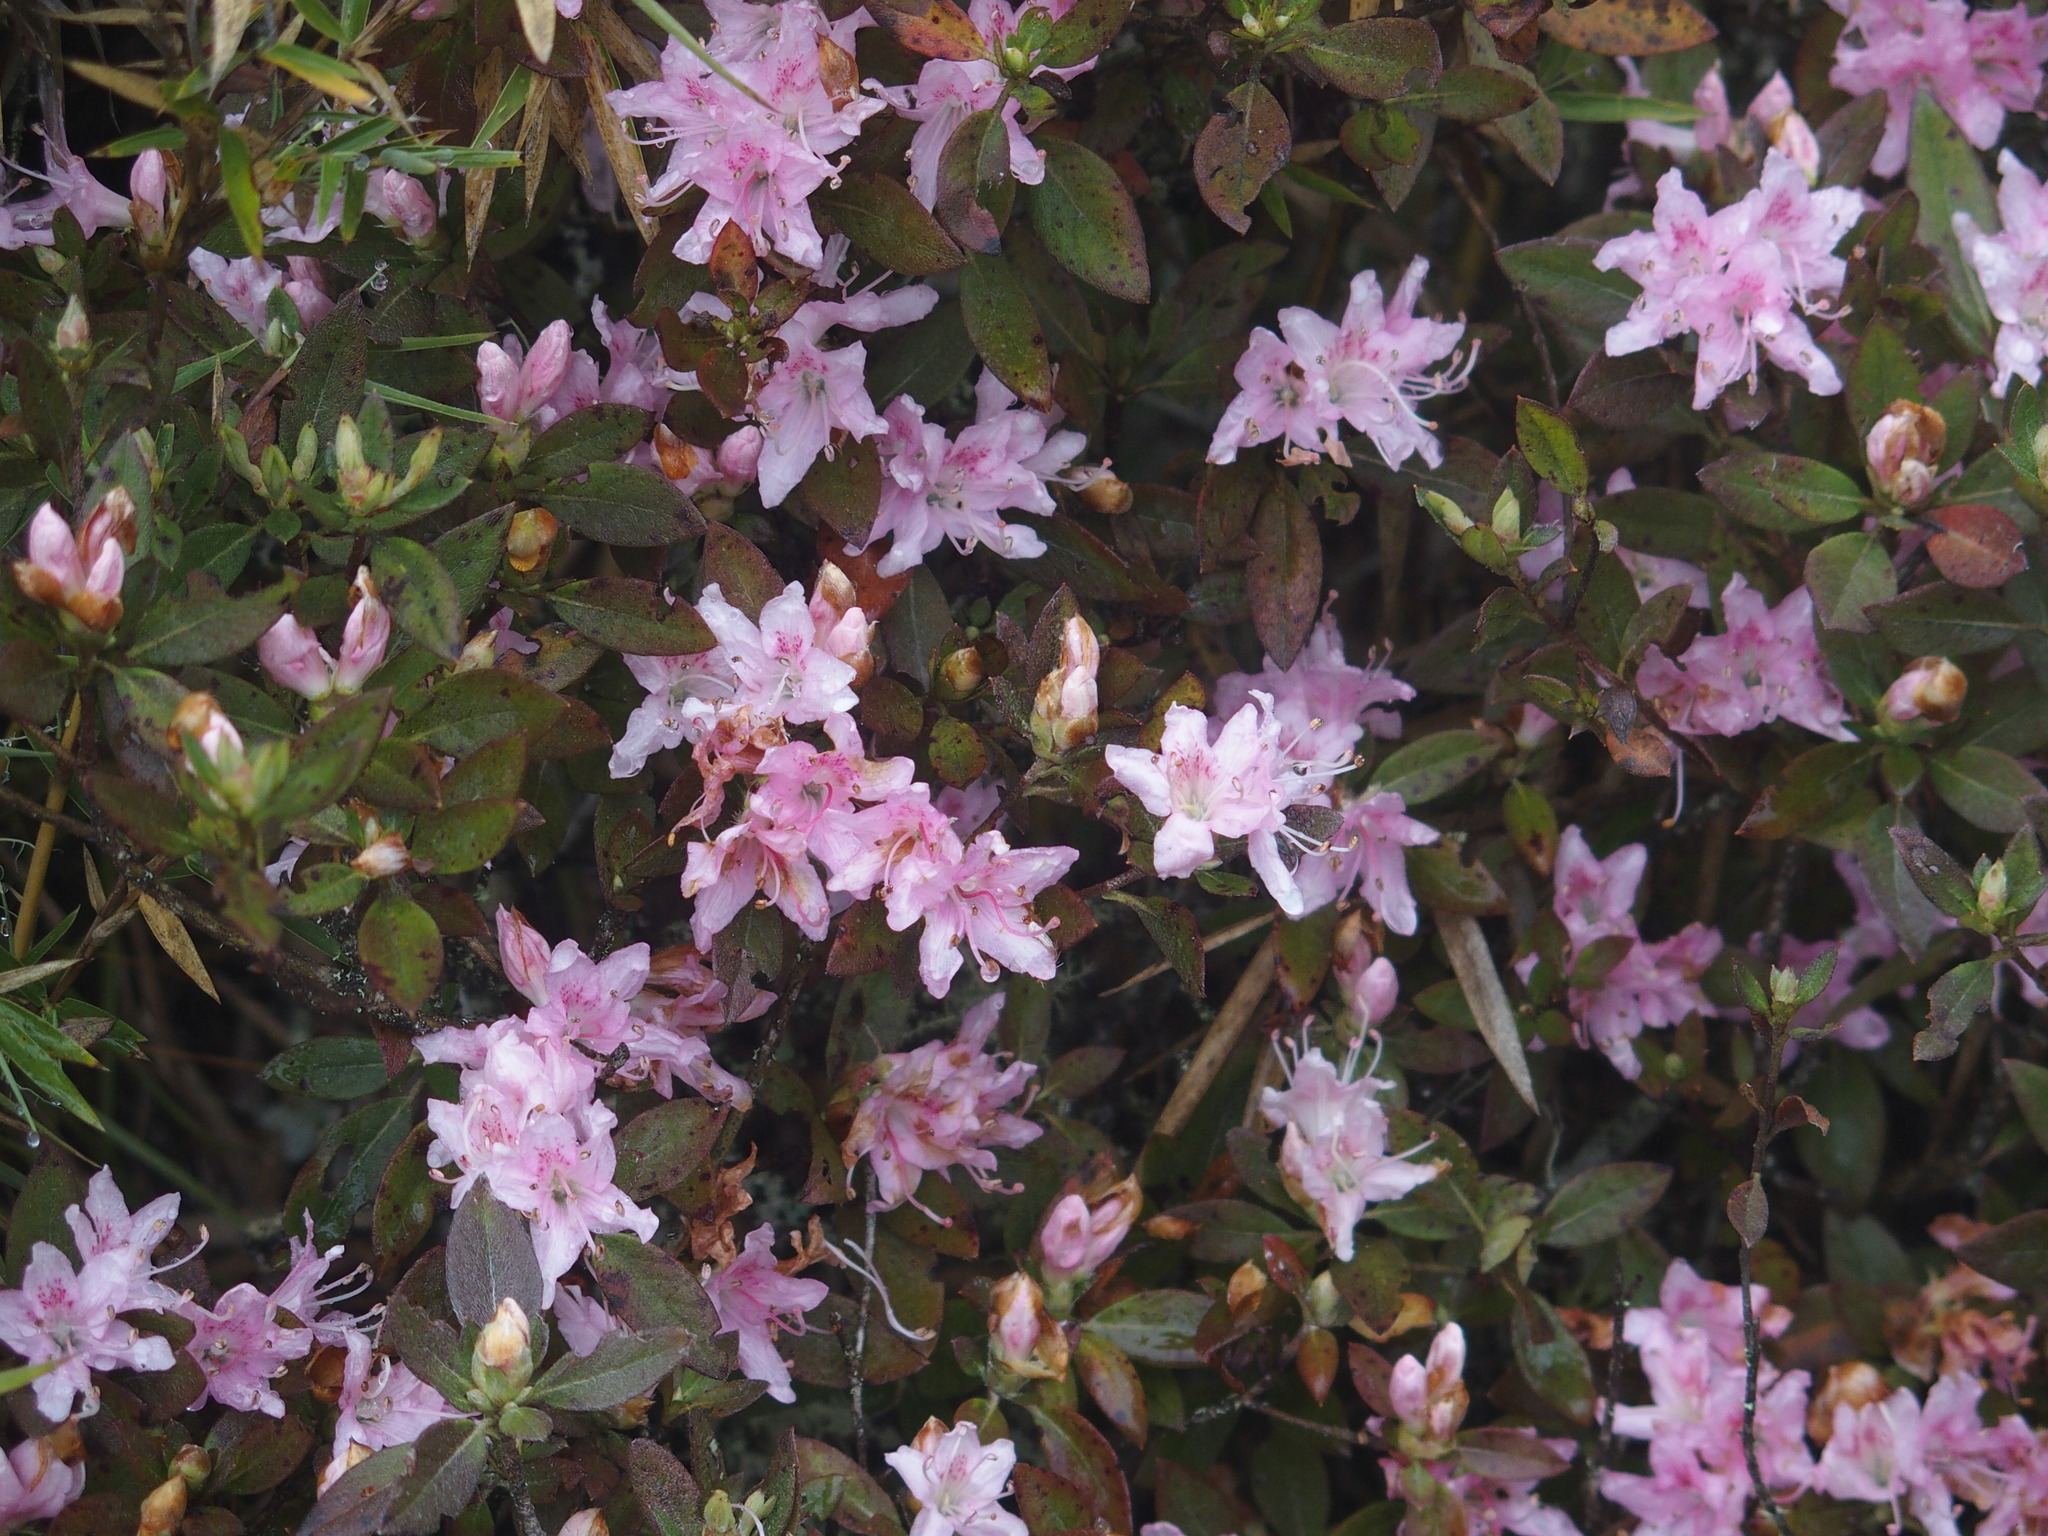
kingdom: Plantae
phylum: Tracheophyta
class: Magnoliopsida
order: Ericales
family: Ericaceae
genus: Rhododendron
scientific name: Rhododendron rubropilosum
